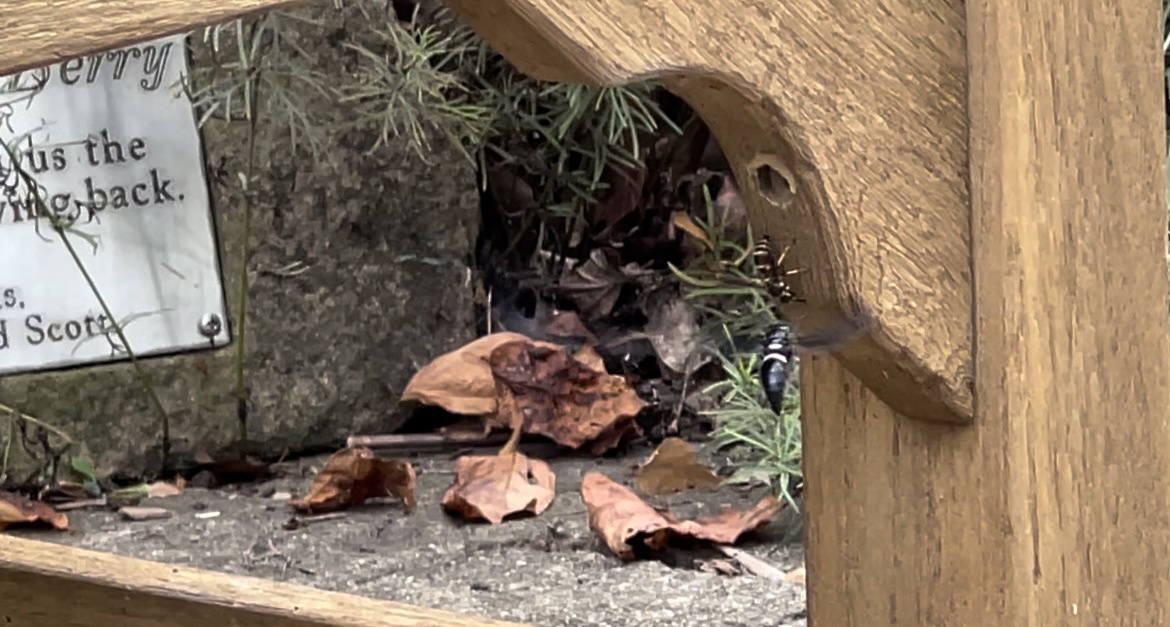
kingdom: Animalia
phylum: Arthropoda
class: Insecta
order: Hymenoptera
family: Eumenidae
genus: Monobia
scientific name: Monobia quadridens
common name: Four-toothed mason wasp
